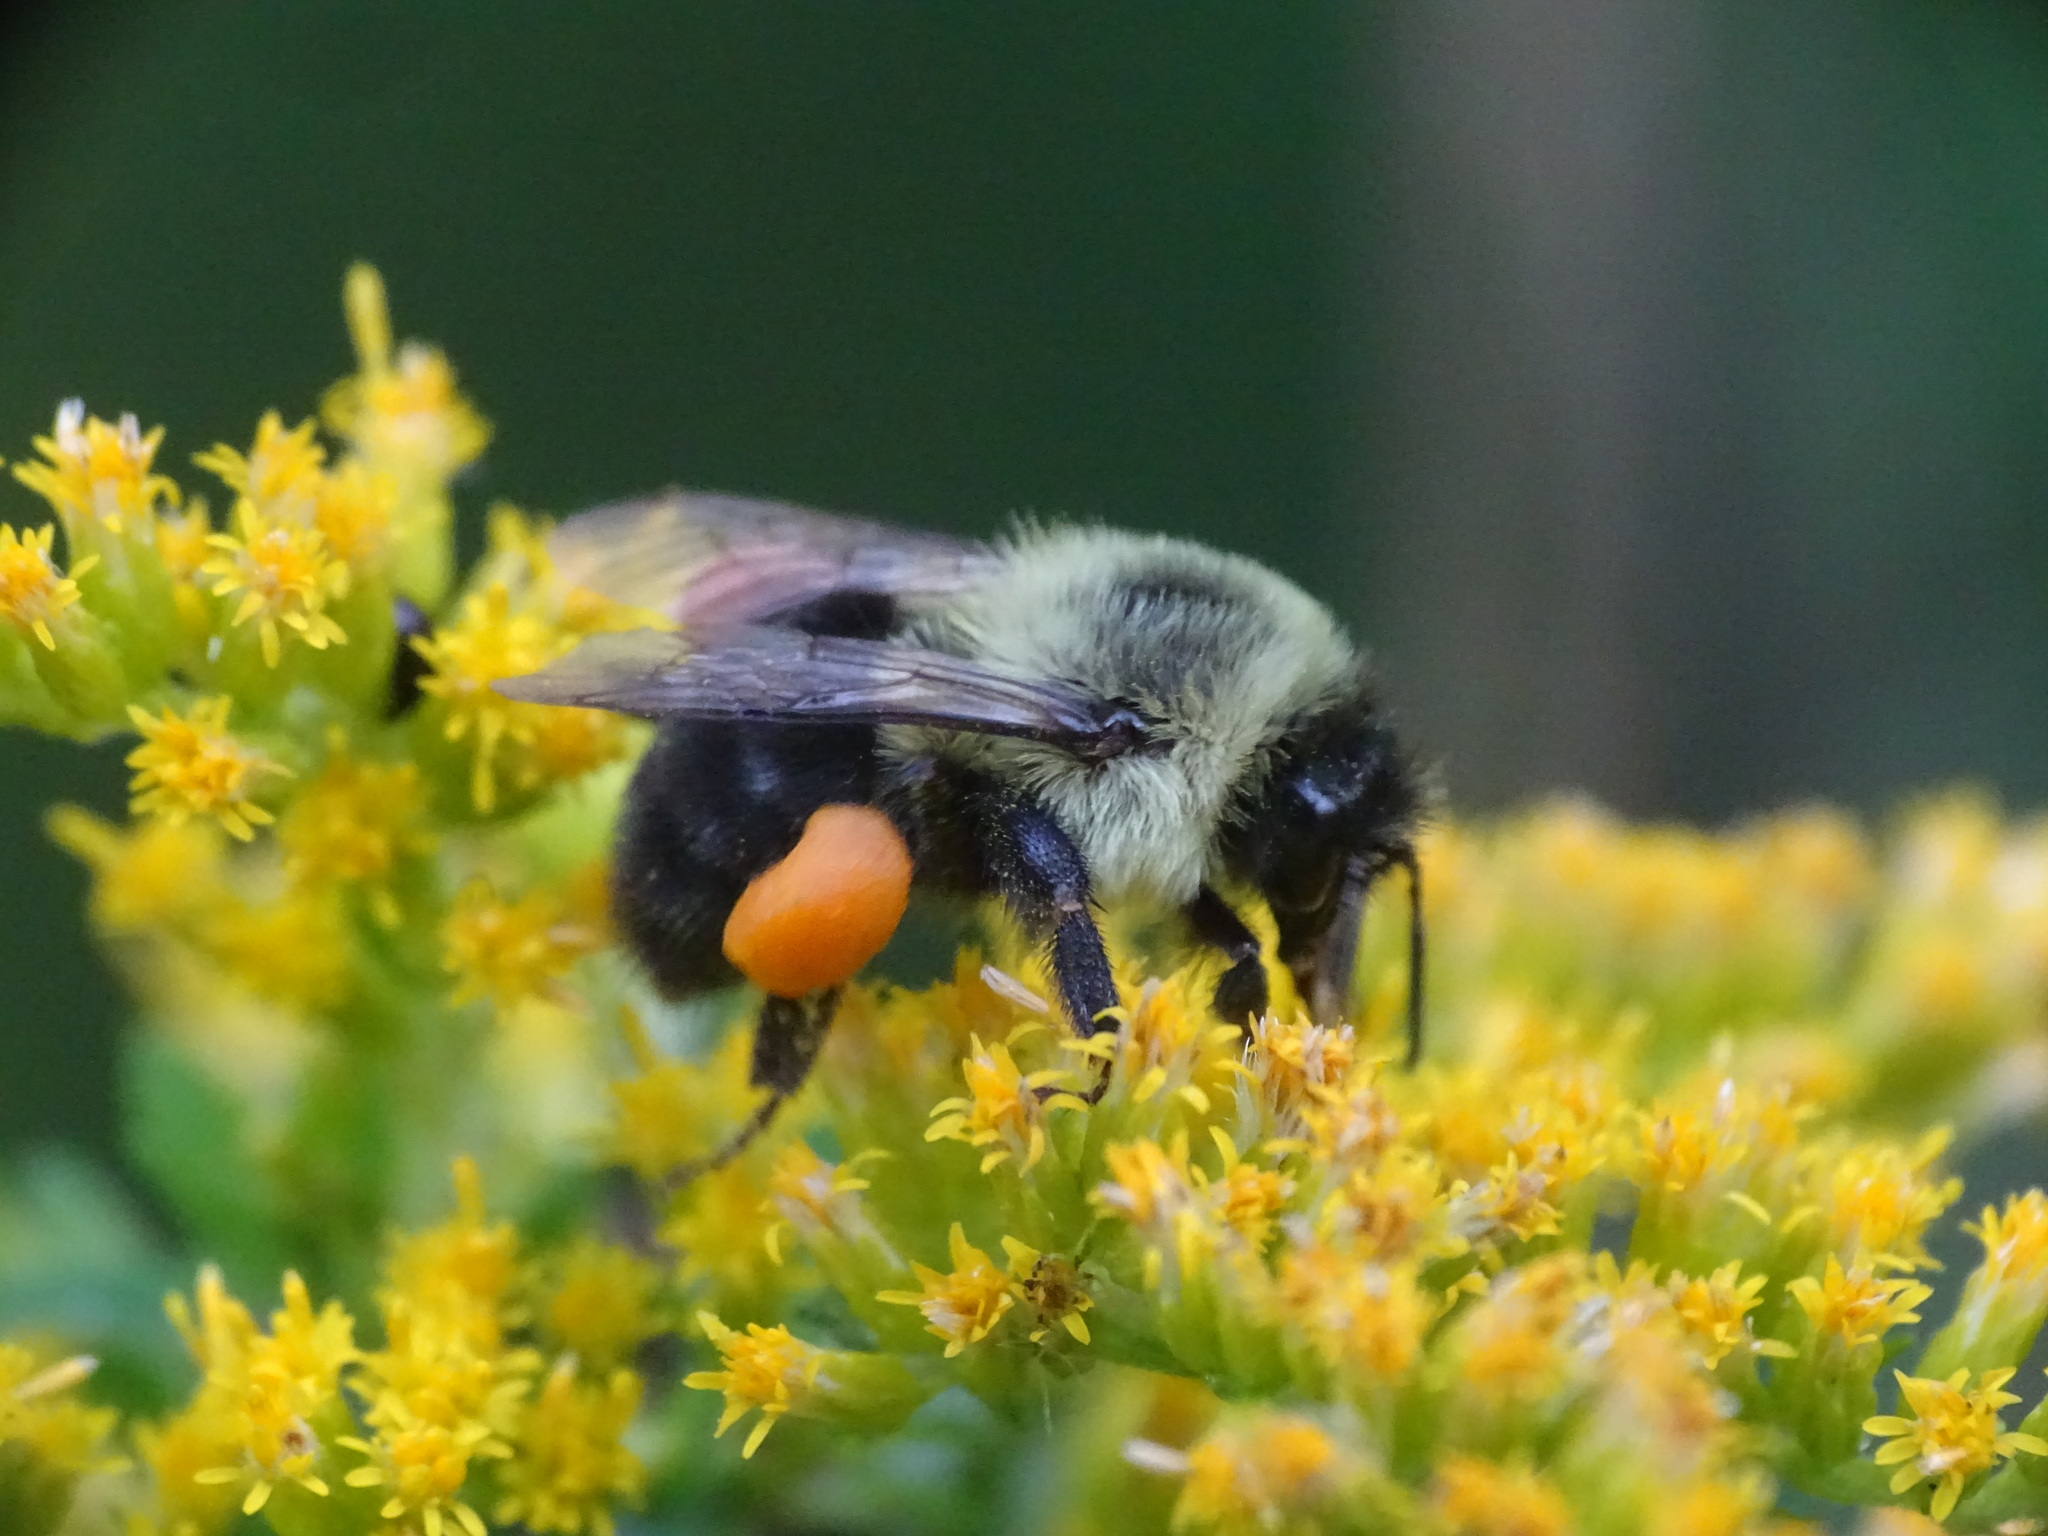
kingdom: Animalia
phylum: Arthropoda
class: Insecta
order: Hymenoptera
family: Apidae
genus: Bombus
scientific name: Bombus impatiens
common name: Common eastern bumble bee
